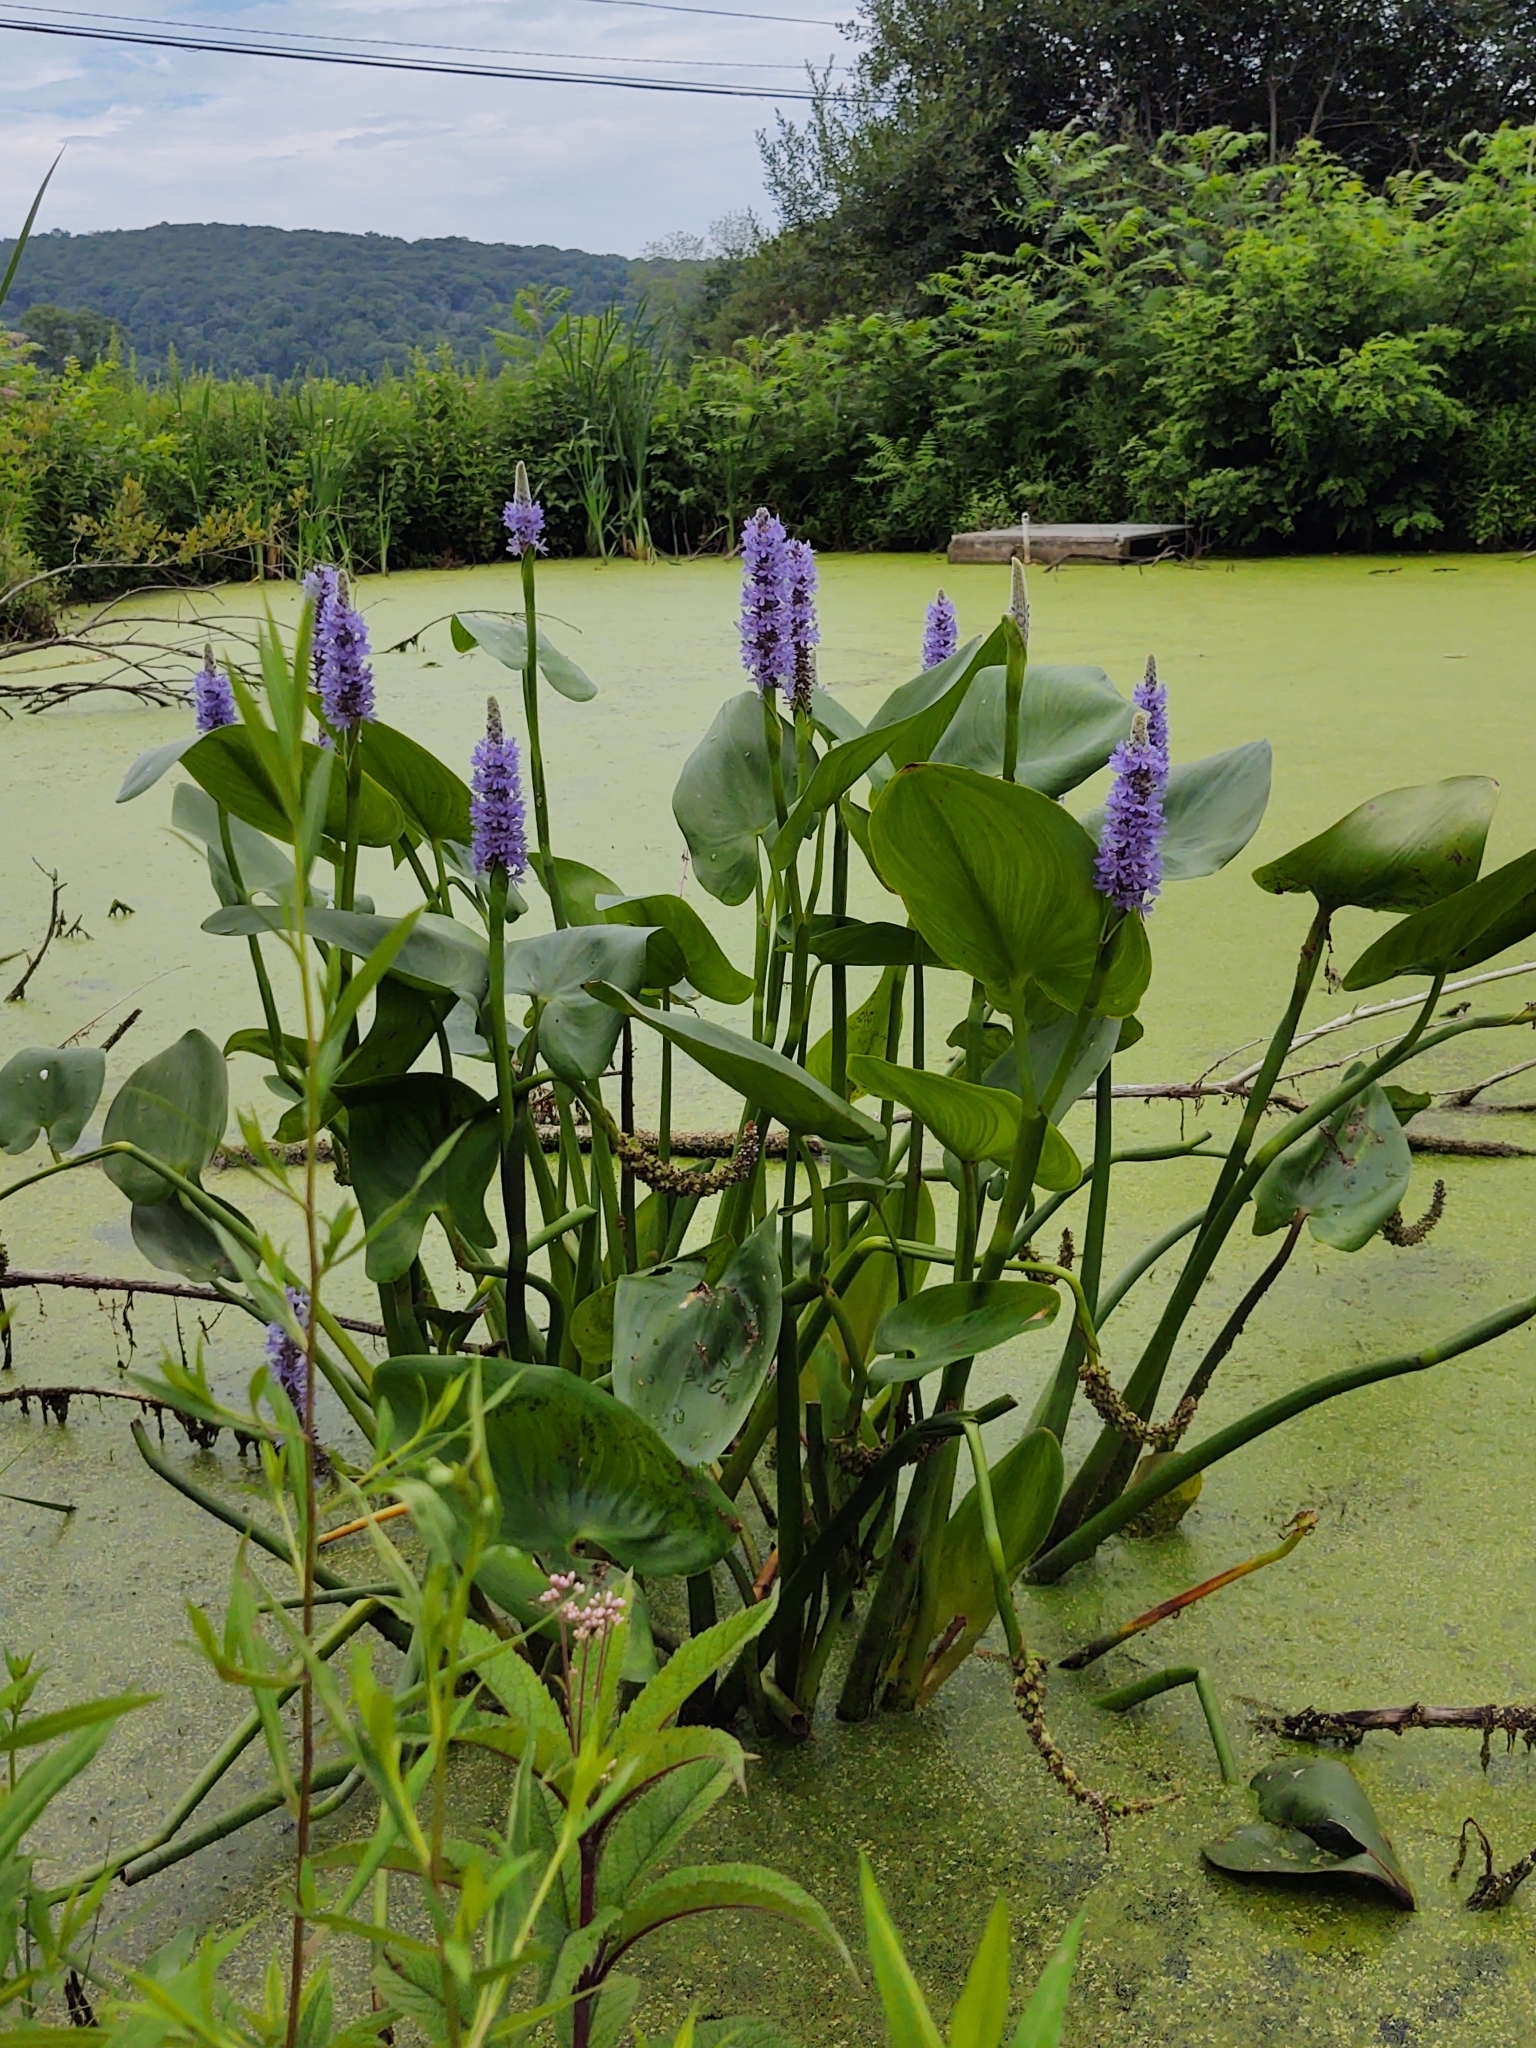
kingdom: Plantae
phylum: Tracheophyta
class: Liliopsida
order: Commelinales
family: Pontederiaceae
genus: Pontederia
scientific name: Pontederia cordata
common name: Pickerelweed
